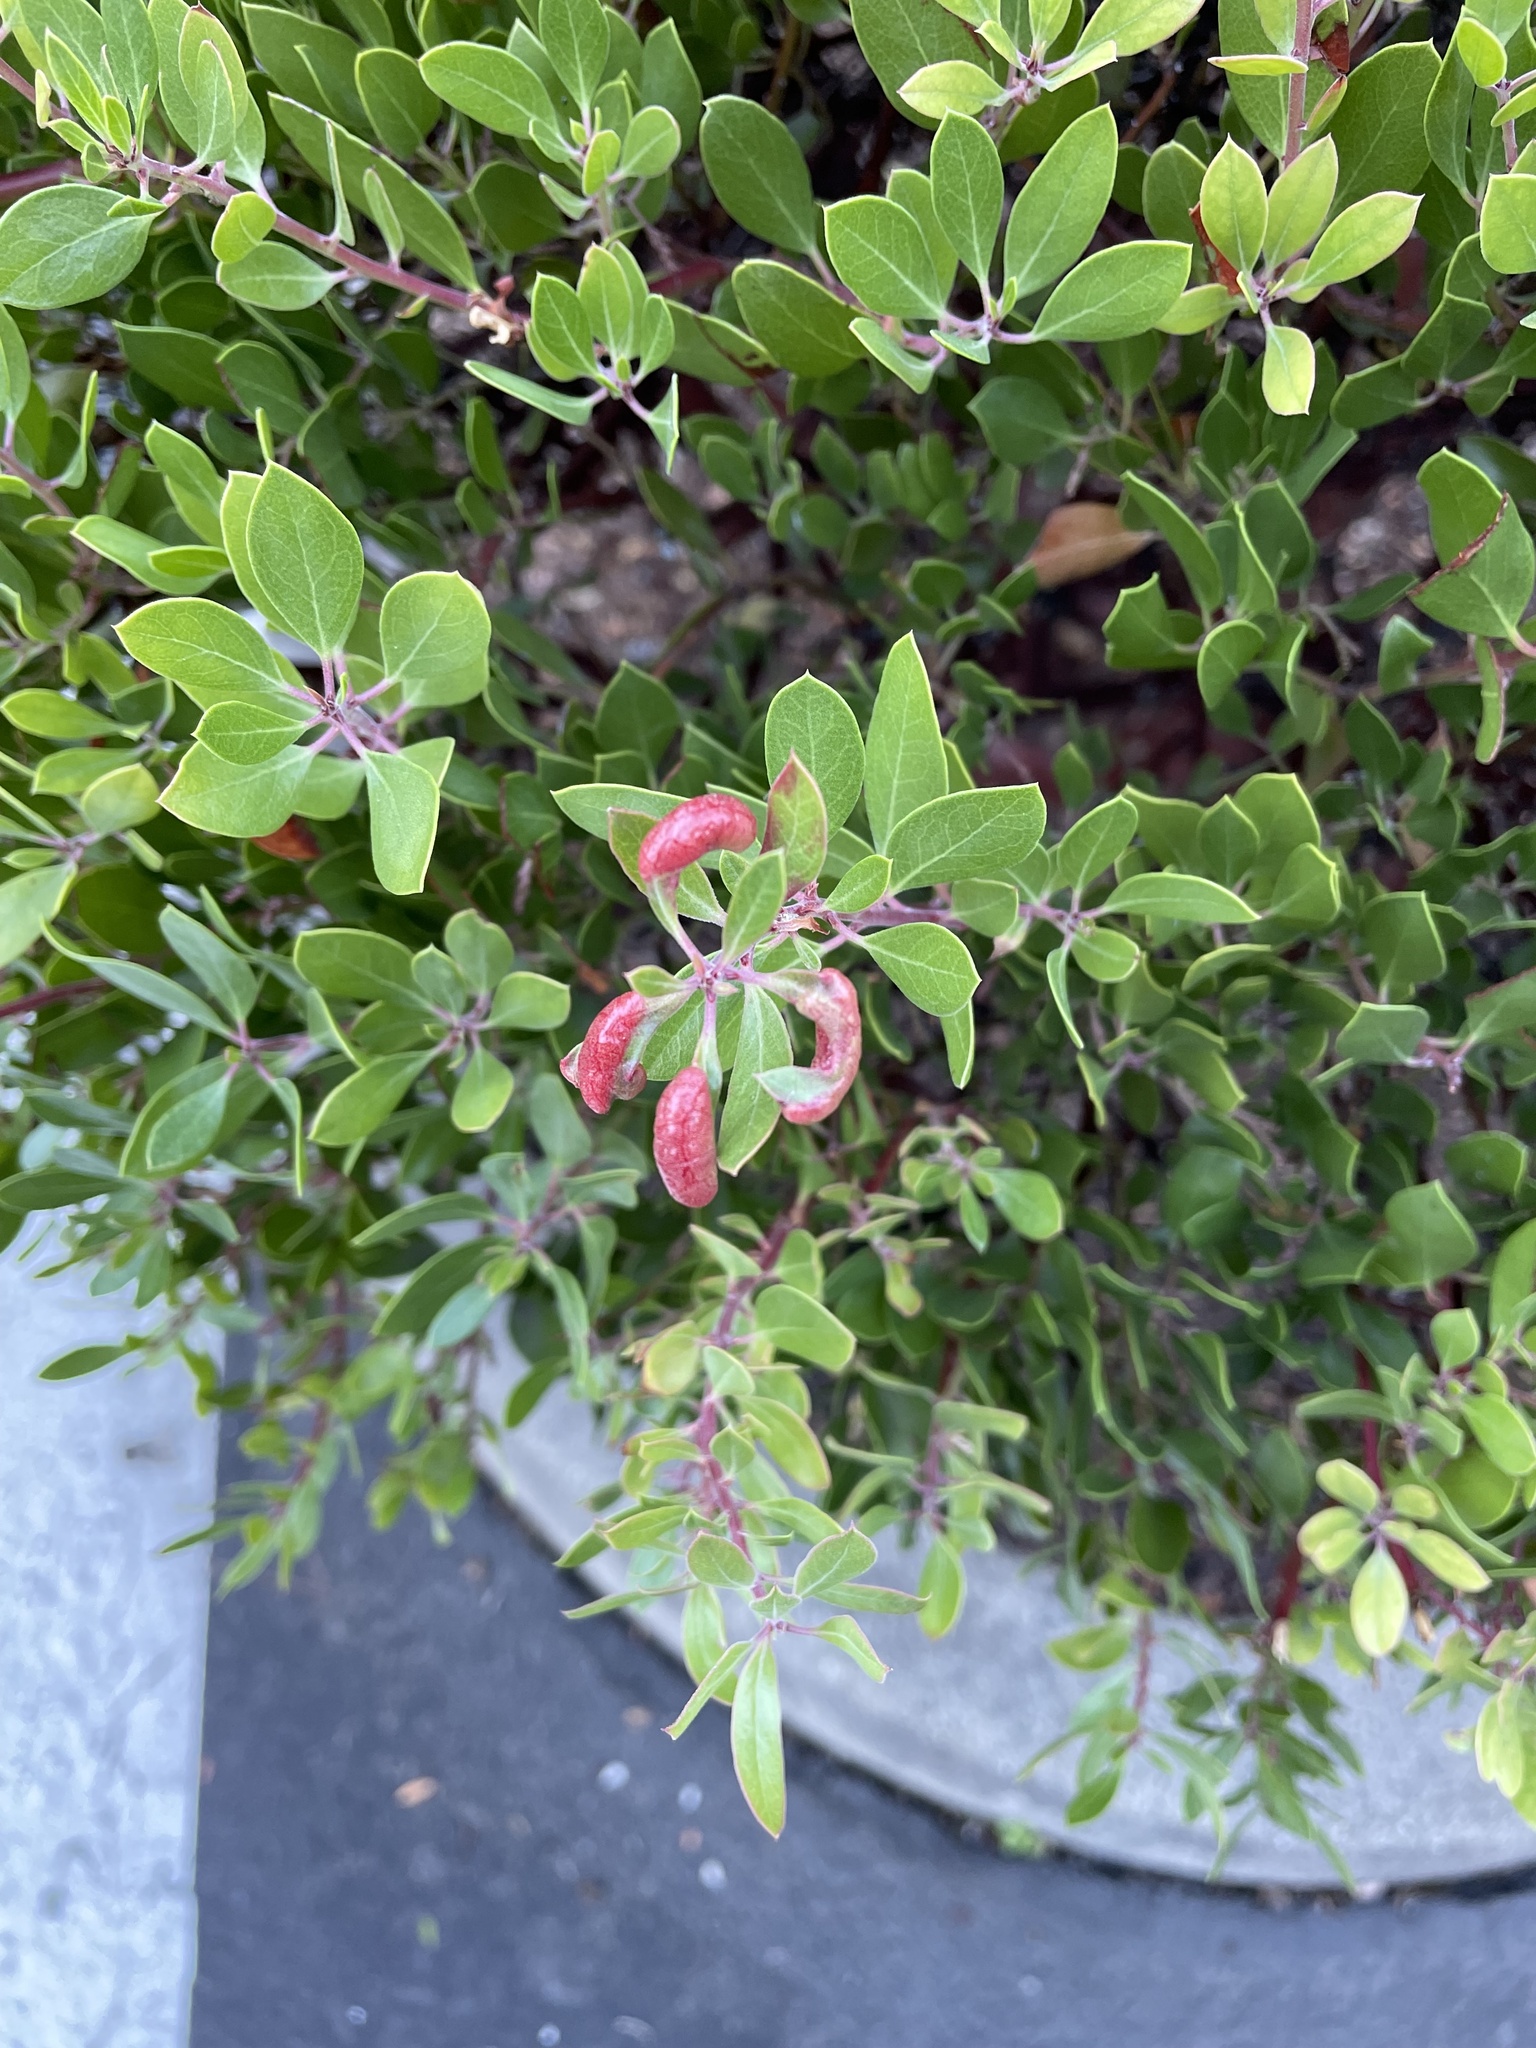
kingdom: Animalia
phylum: Arthropoda
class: Insecta
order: Hemiptera
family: Aphididae
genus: Tamalia
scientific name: Tamalia coweni
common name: Manzanita leafgall aphid
